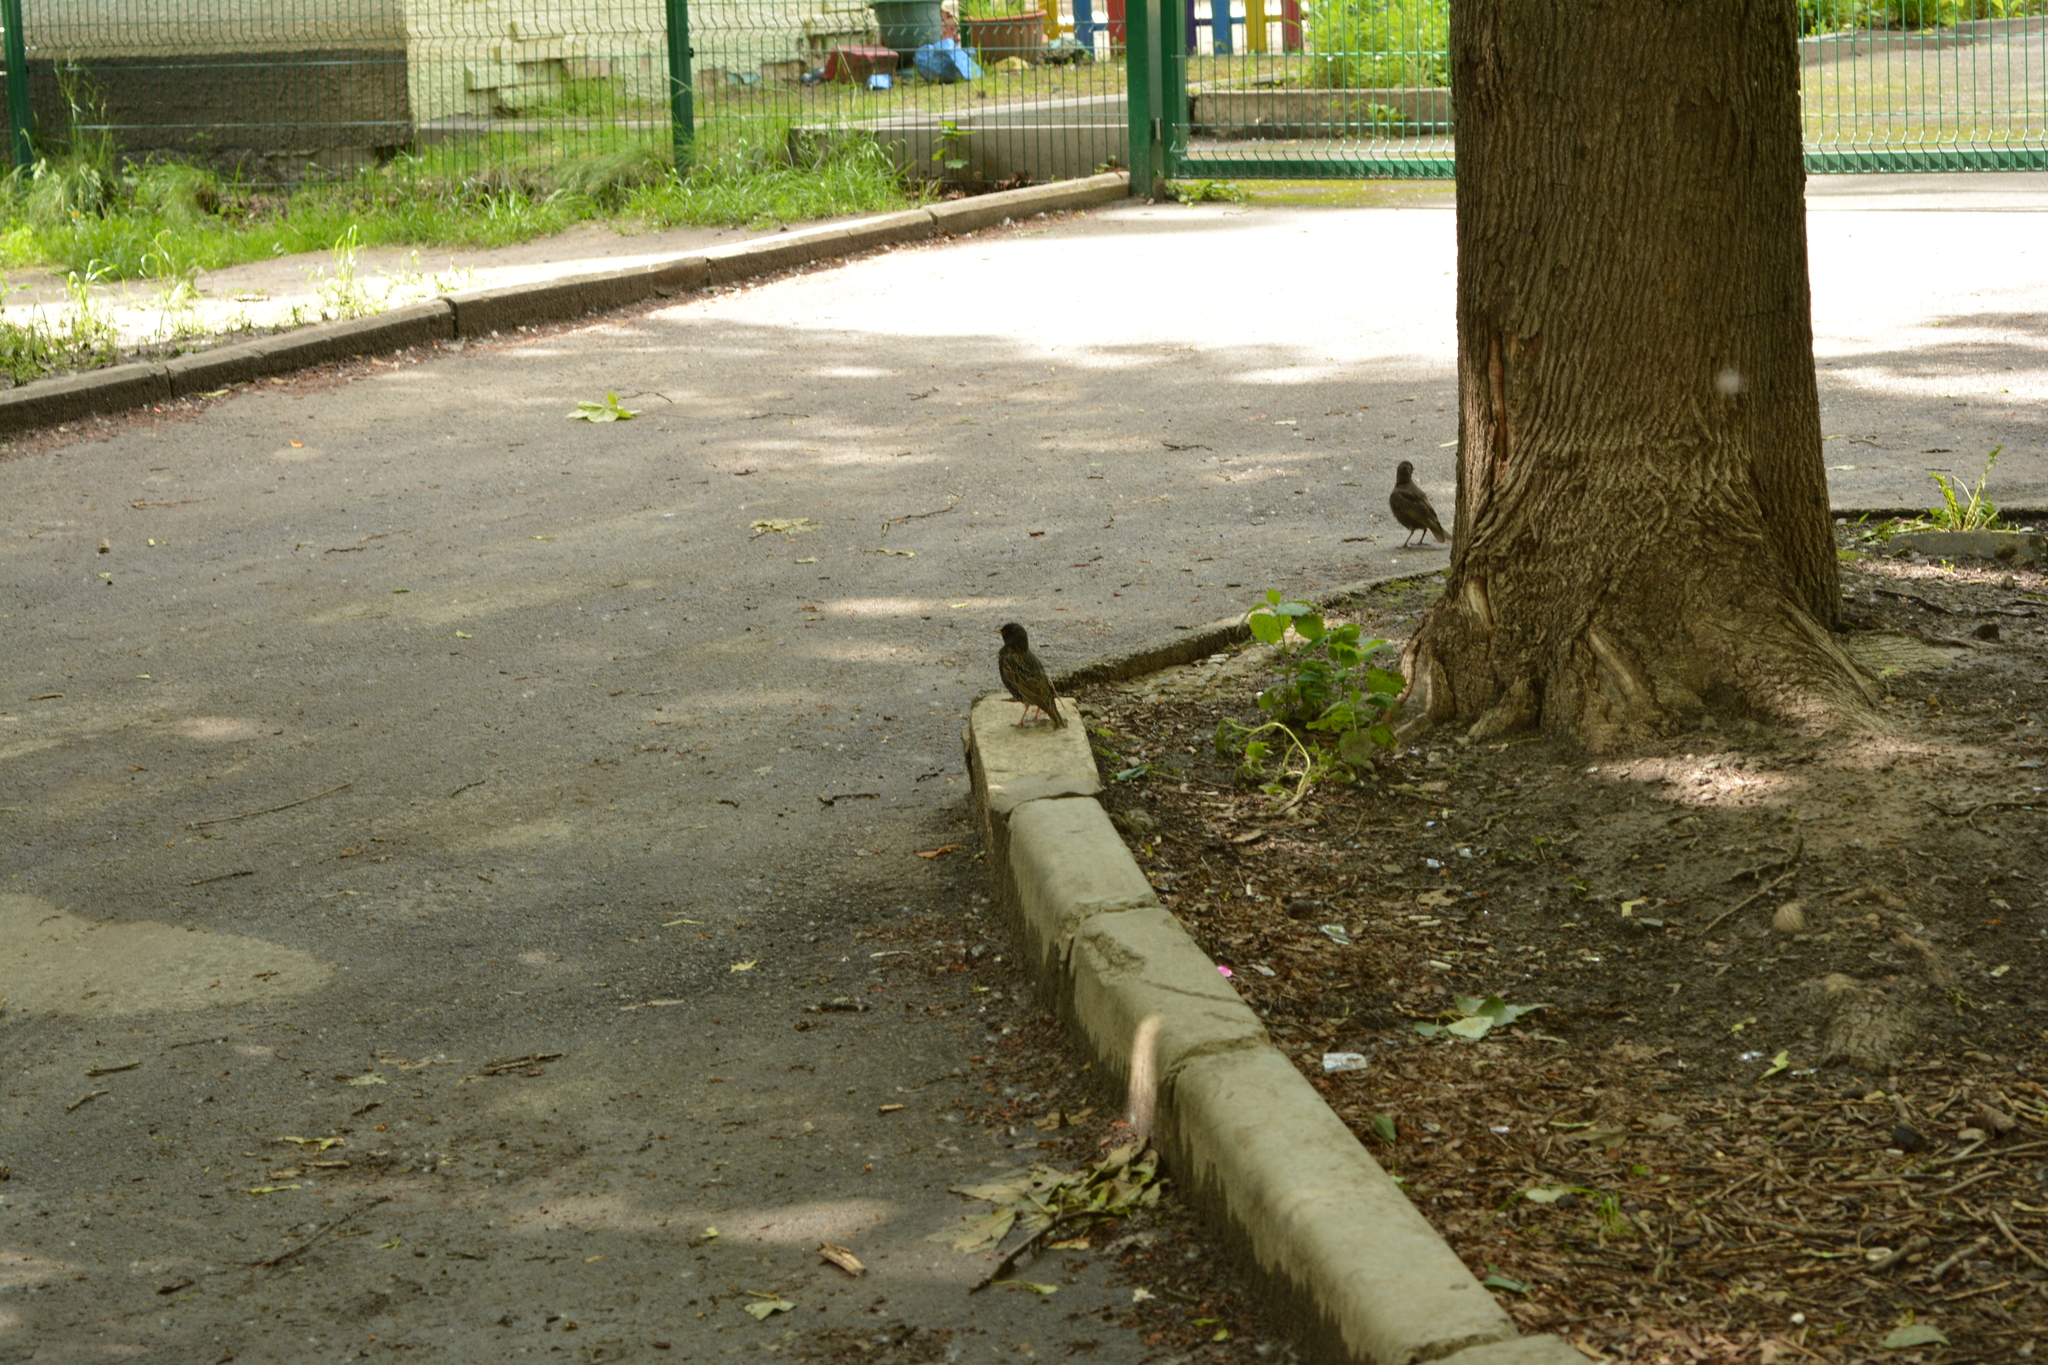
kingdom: Animalia
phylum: Chordata
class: Aves
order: Passeriformes
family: Sturnidae
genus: Sturnus
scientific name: Sturnus vulgaris
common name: Common starling
